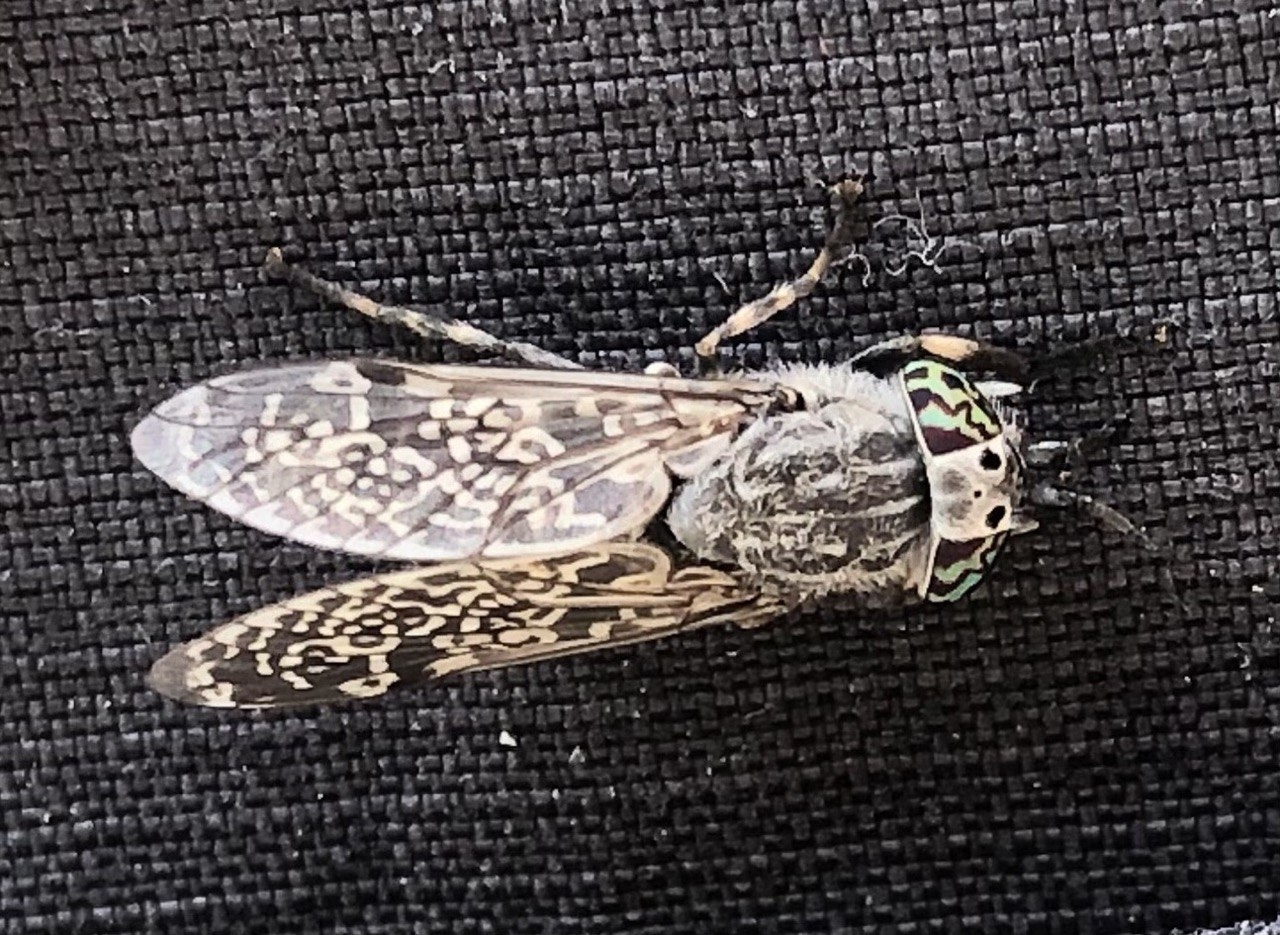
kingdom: Animalia
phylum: Arthropoda
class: Insecta
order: Diptera
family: Tabanidae
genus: Haematopota
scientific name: Haematopota pluvialis
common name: Common horse fly
